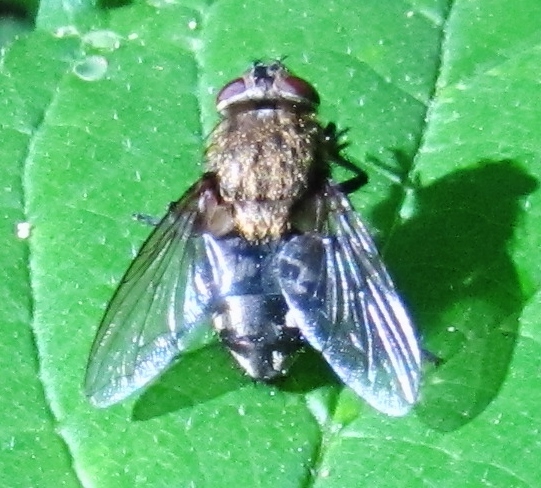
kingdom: Animalia
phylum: Arthropoda
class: Insecta
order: Diptera
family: Polleniidae
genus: Pollenia
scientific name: Pollenia
